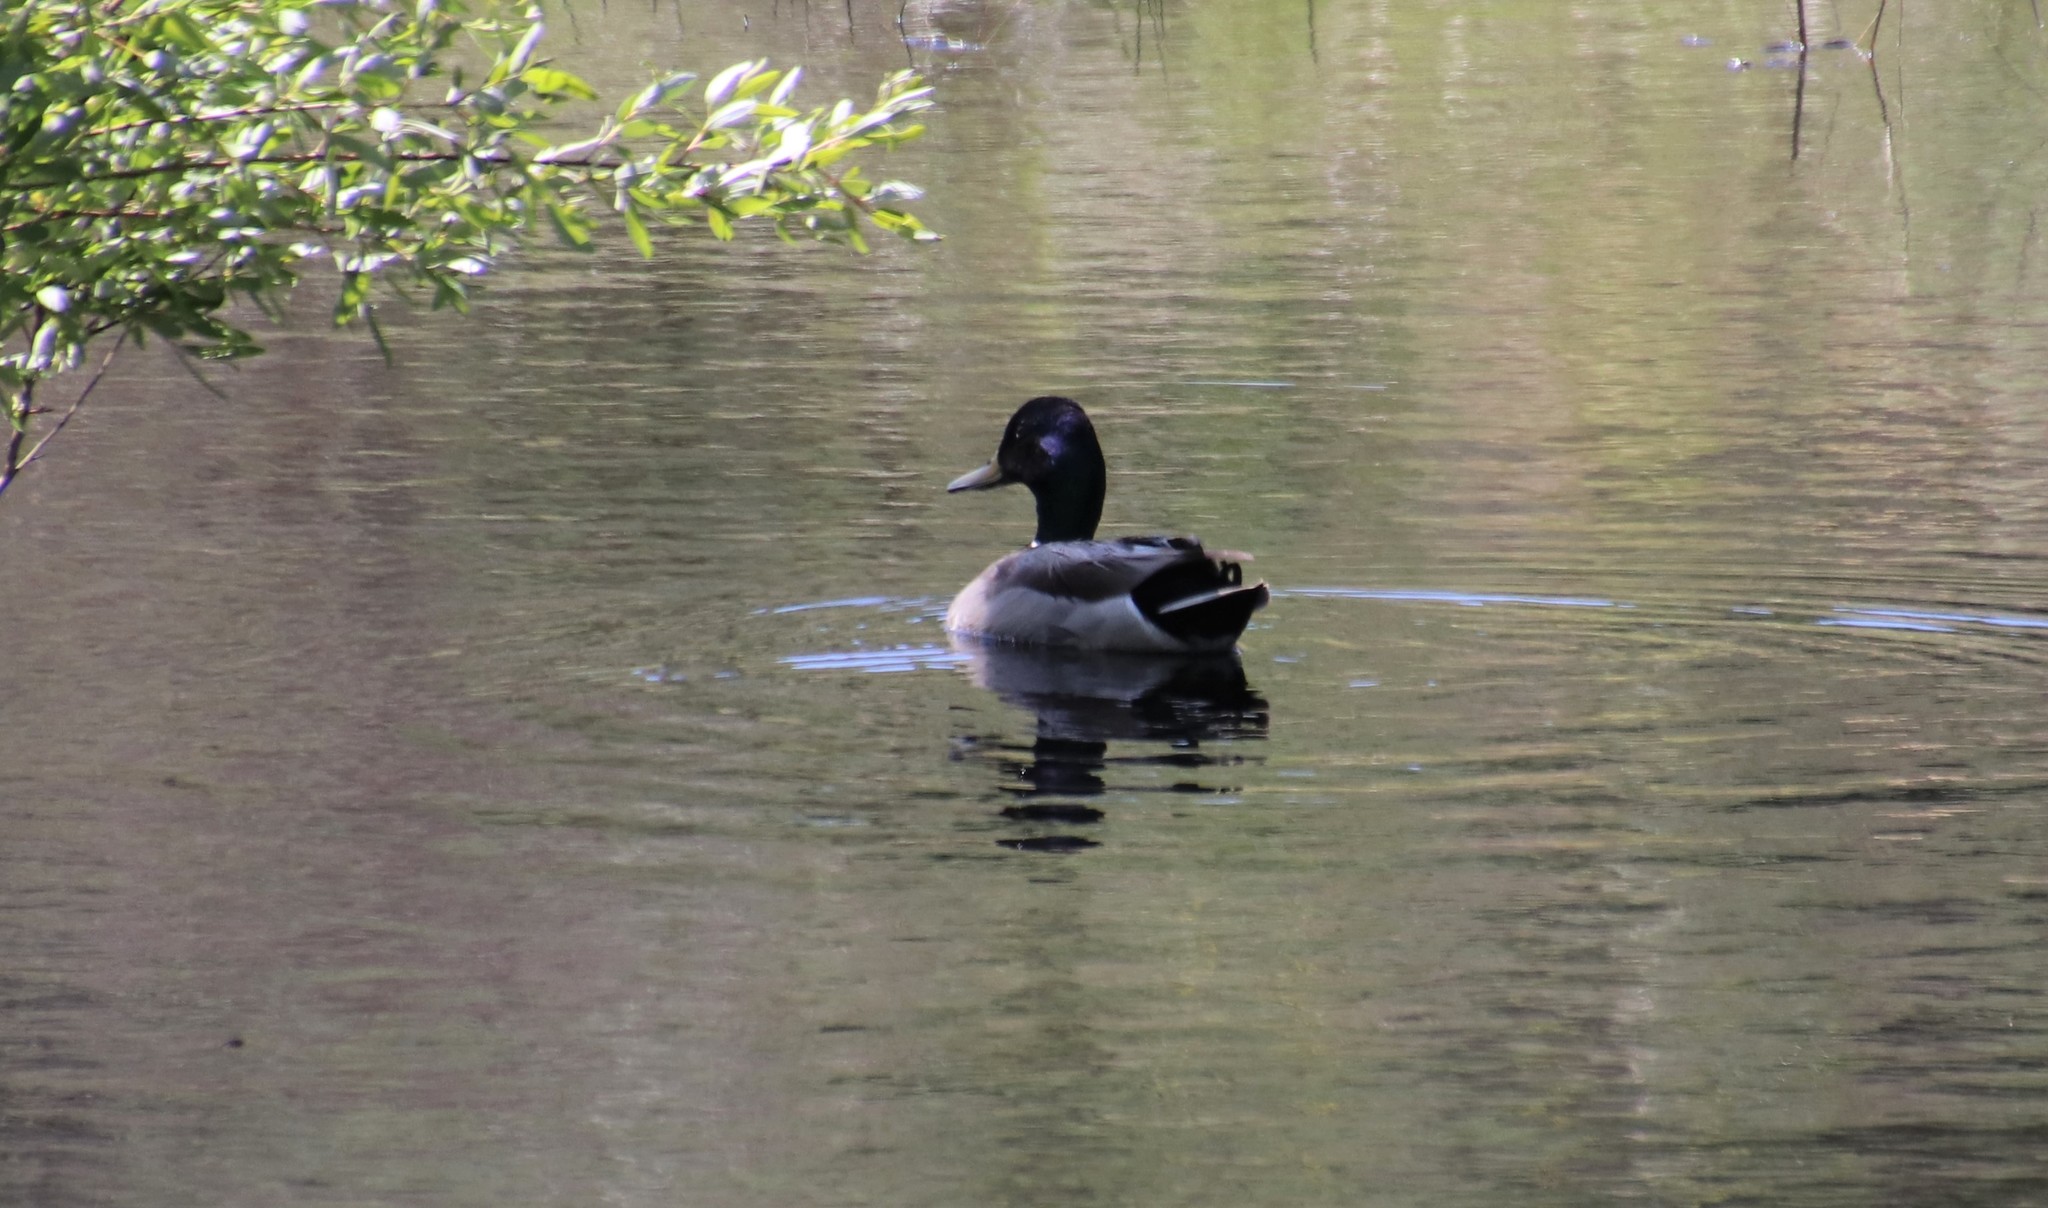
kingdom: Animalia
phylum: Chordata
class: Aves
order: Anseriformes
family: Anatidae
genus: Anas
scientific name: Anas platyrhynchos
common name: Mallard
